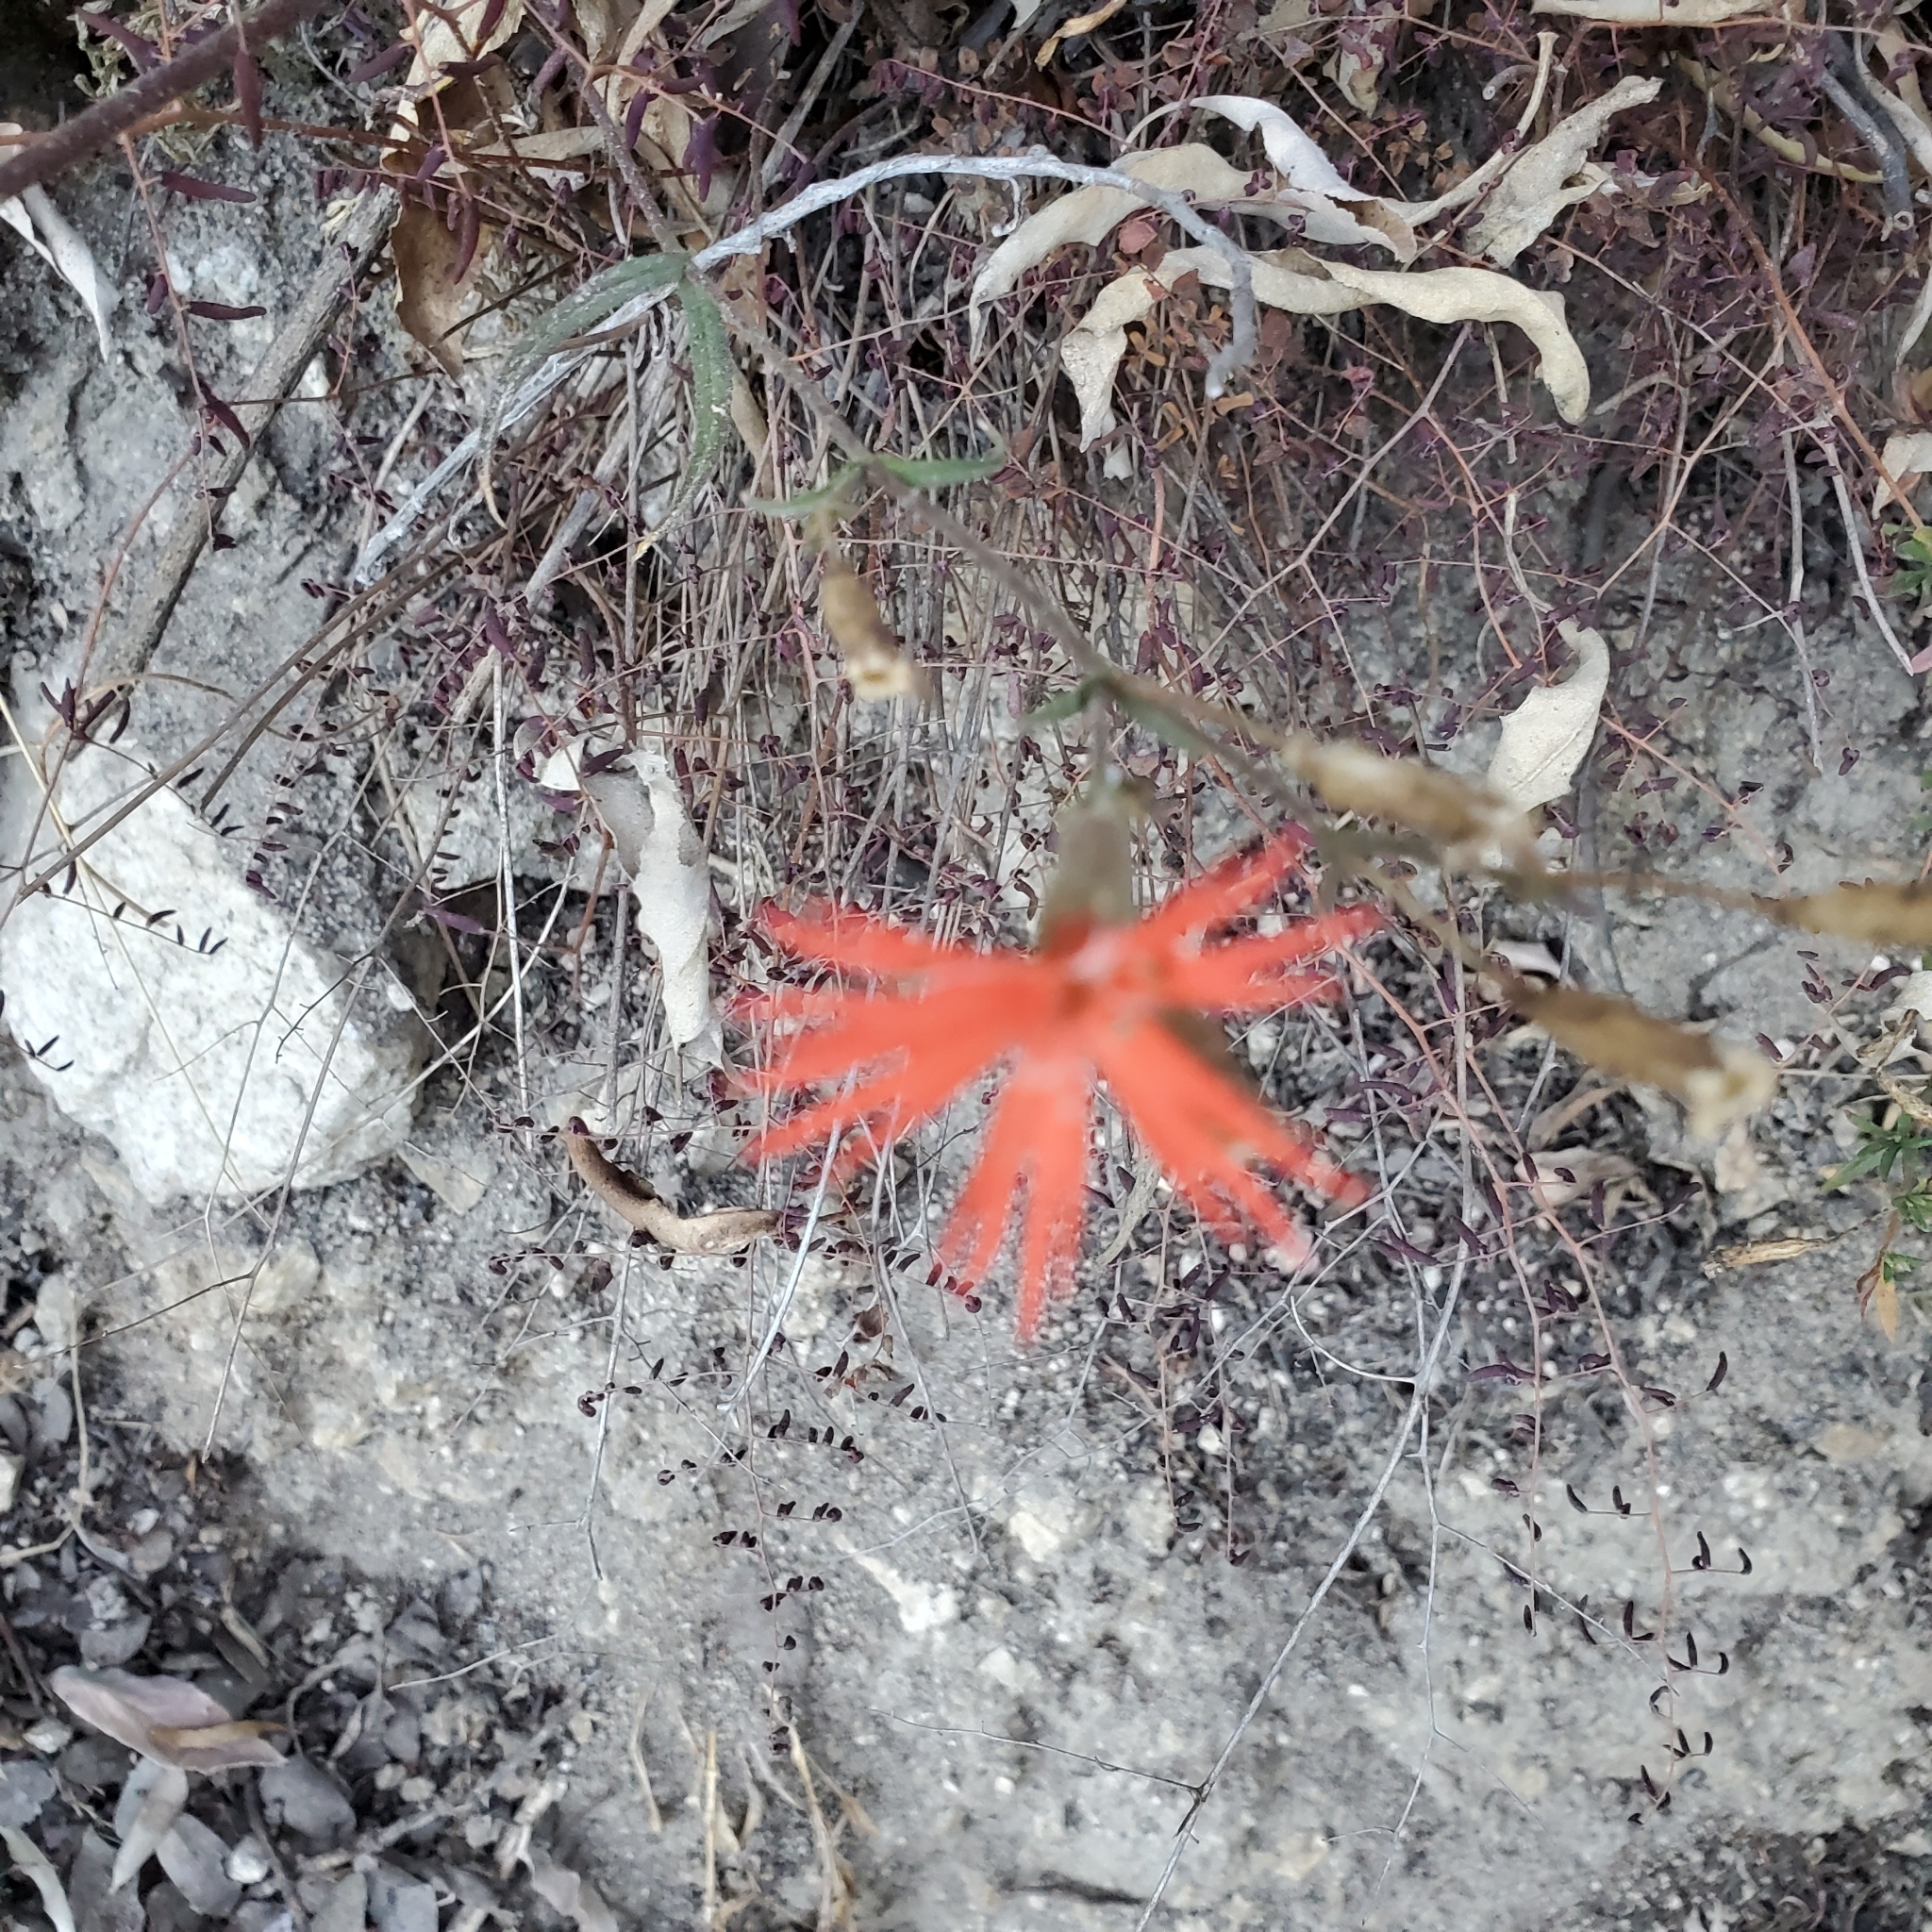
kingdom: Plantae
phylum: Tracheophyta
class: Magnoliopsida
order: Caryophyllales
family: Caryophyllaceae
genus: Silene
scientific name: Silene laciniata
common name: Indian-pink
